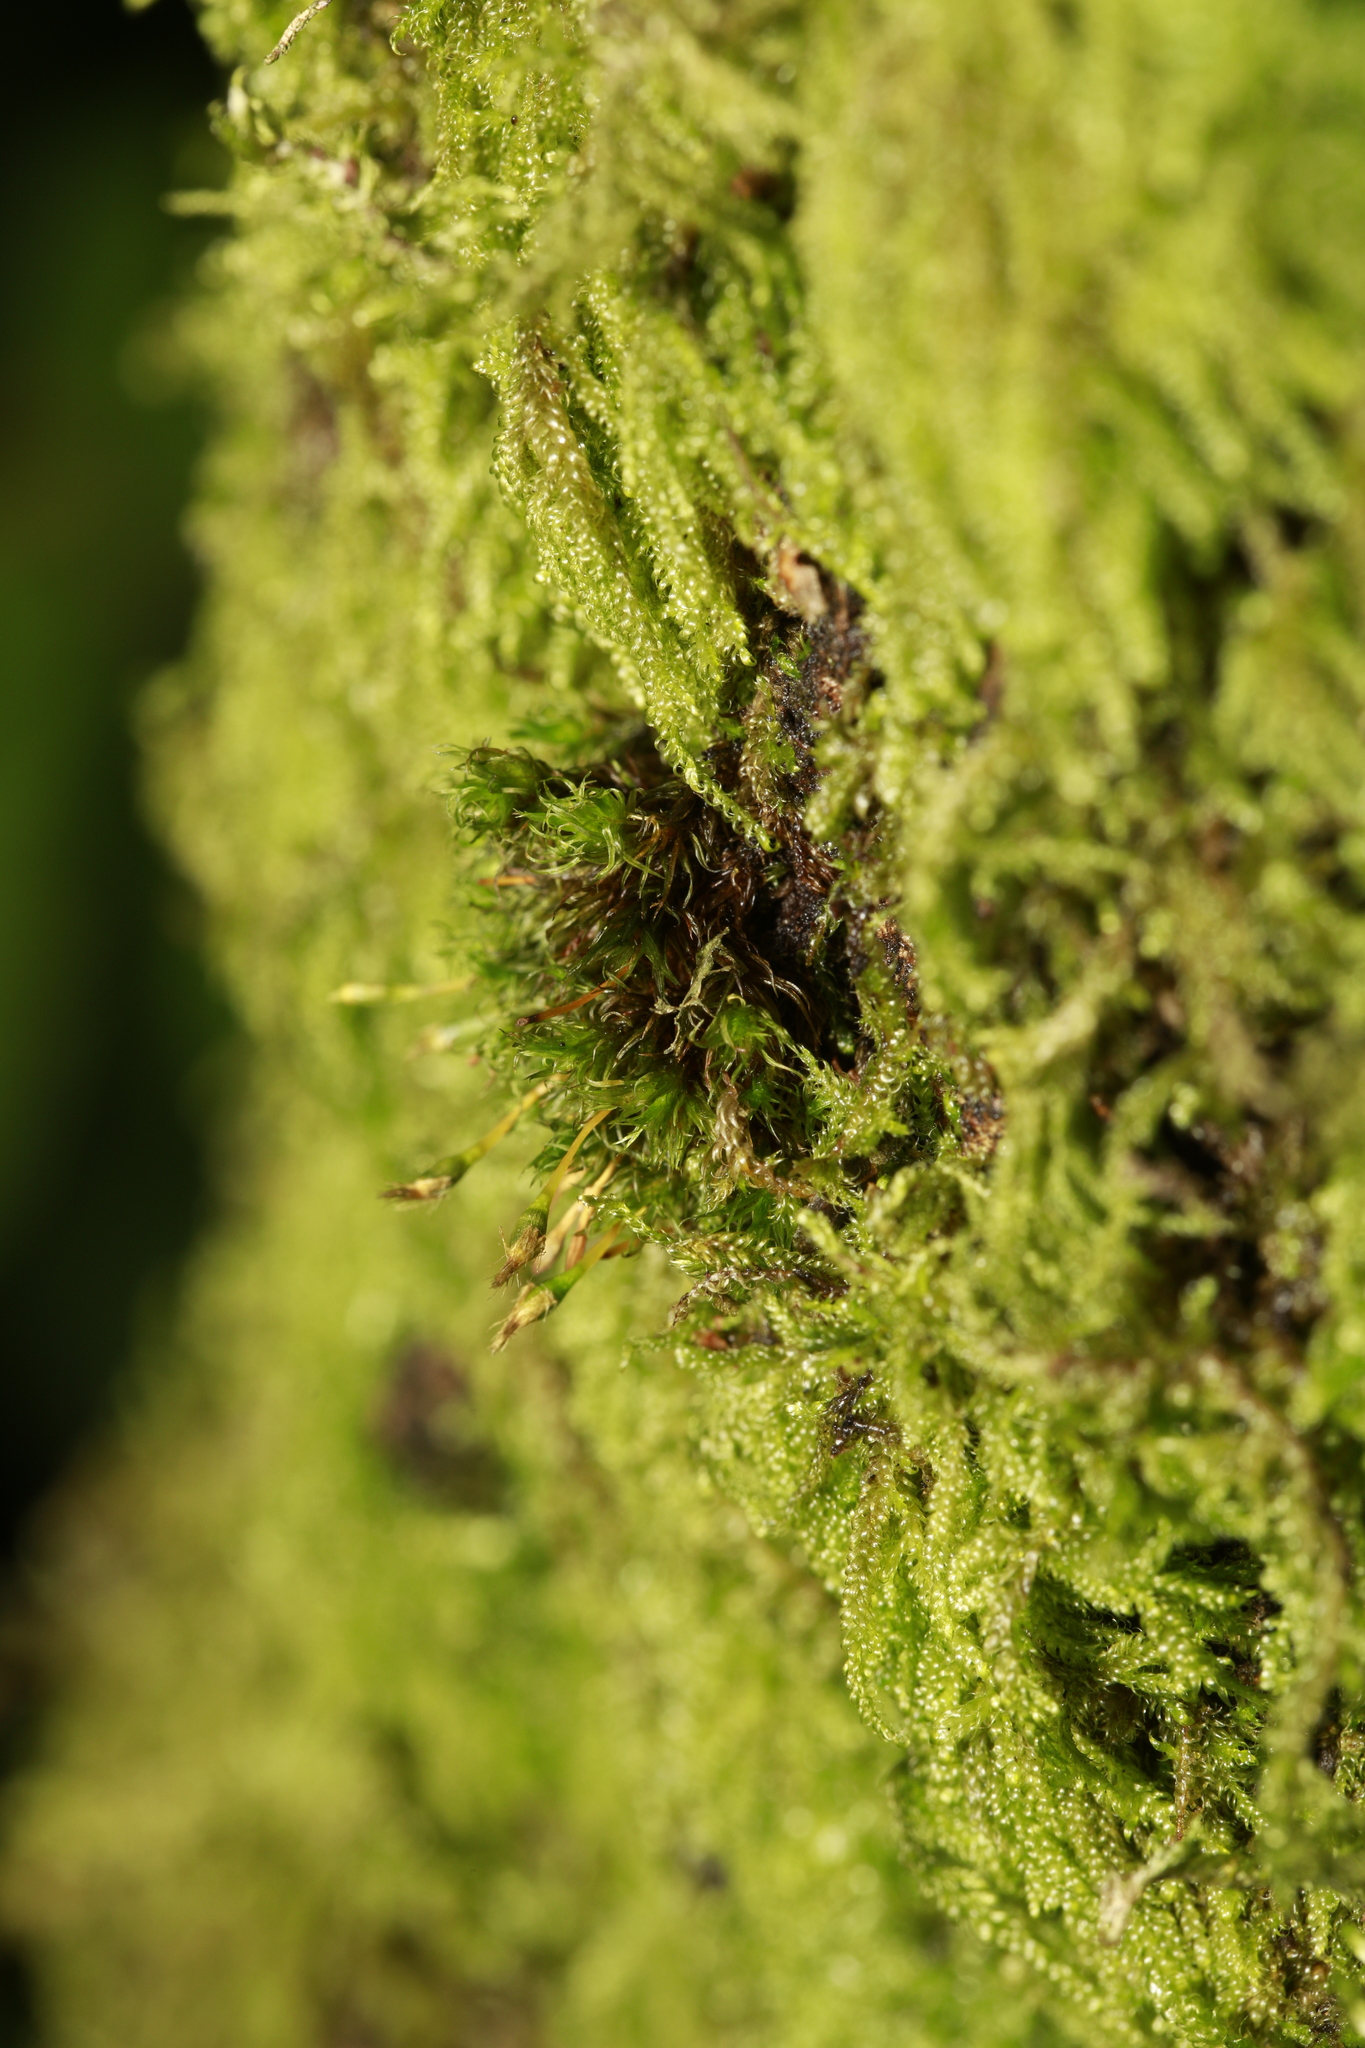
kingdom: Plantae
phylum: Bryophyta
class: Bryopsida
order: Orthotrichales
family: Orthotrichaceae
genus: Ulota
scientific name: Ulota bruchii
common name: Bruch's pincushion
